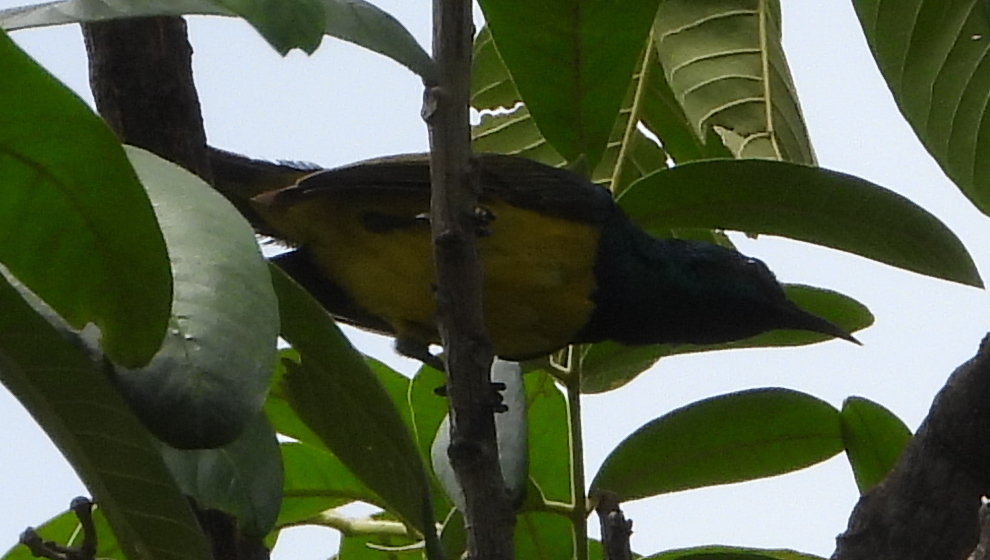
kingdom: Animalia
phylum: Chordata
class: Aves
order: Passeriformes
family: Nectariniidae
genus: Hedydipna
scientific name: Hedydipna collaris
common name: Collared sunbird
